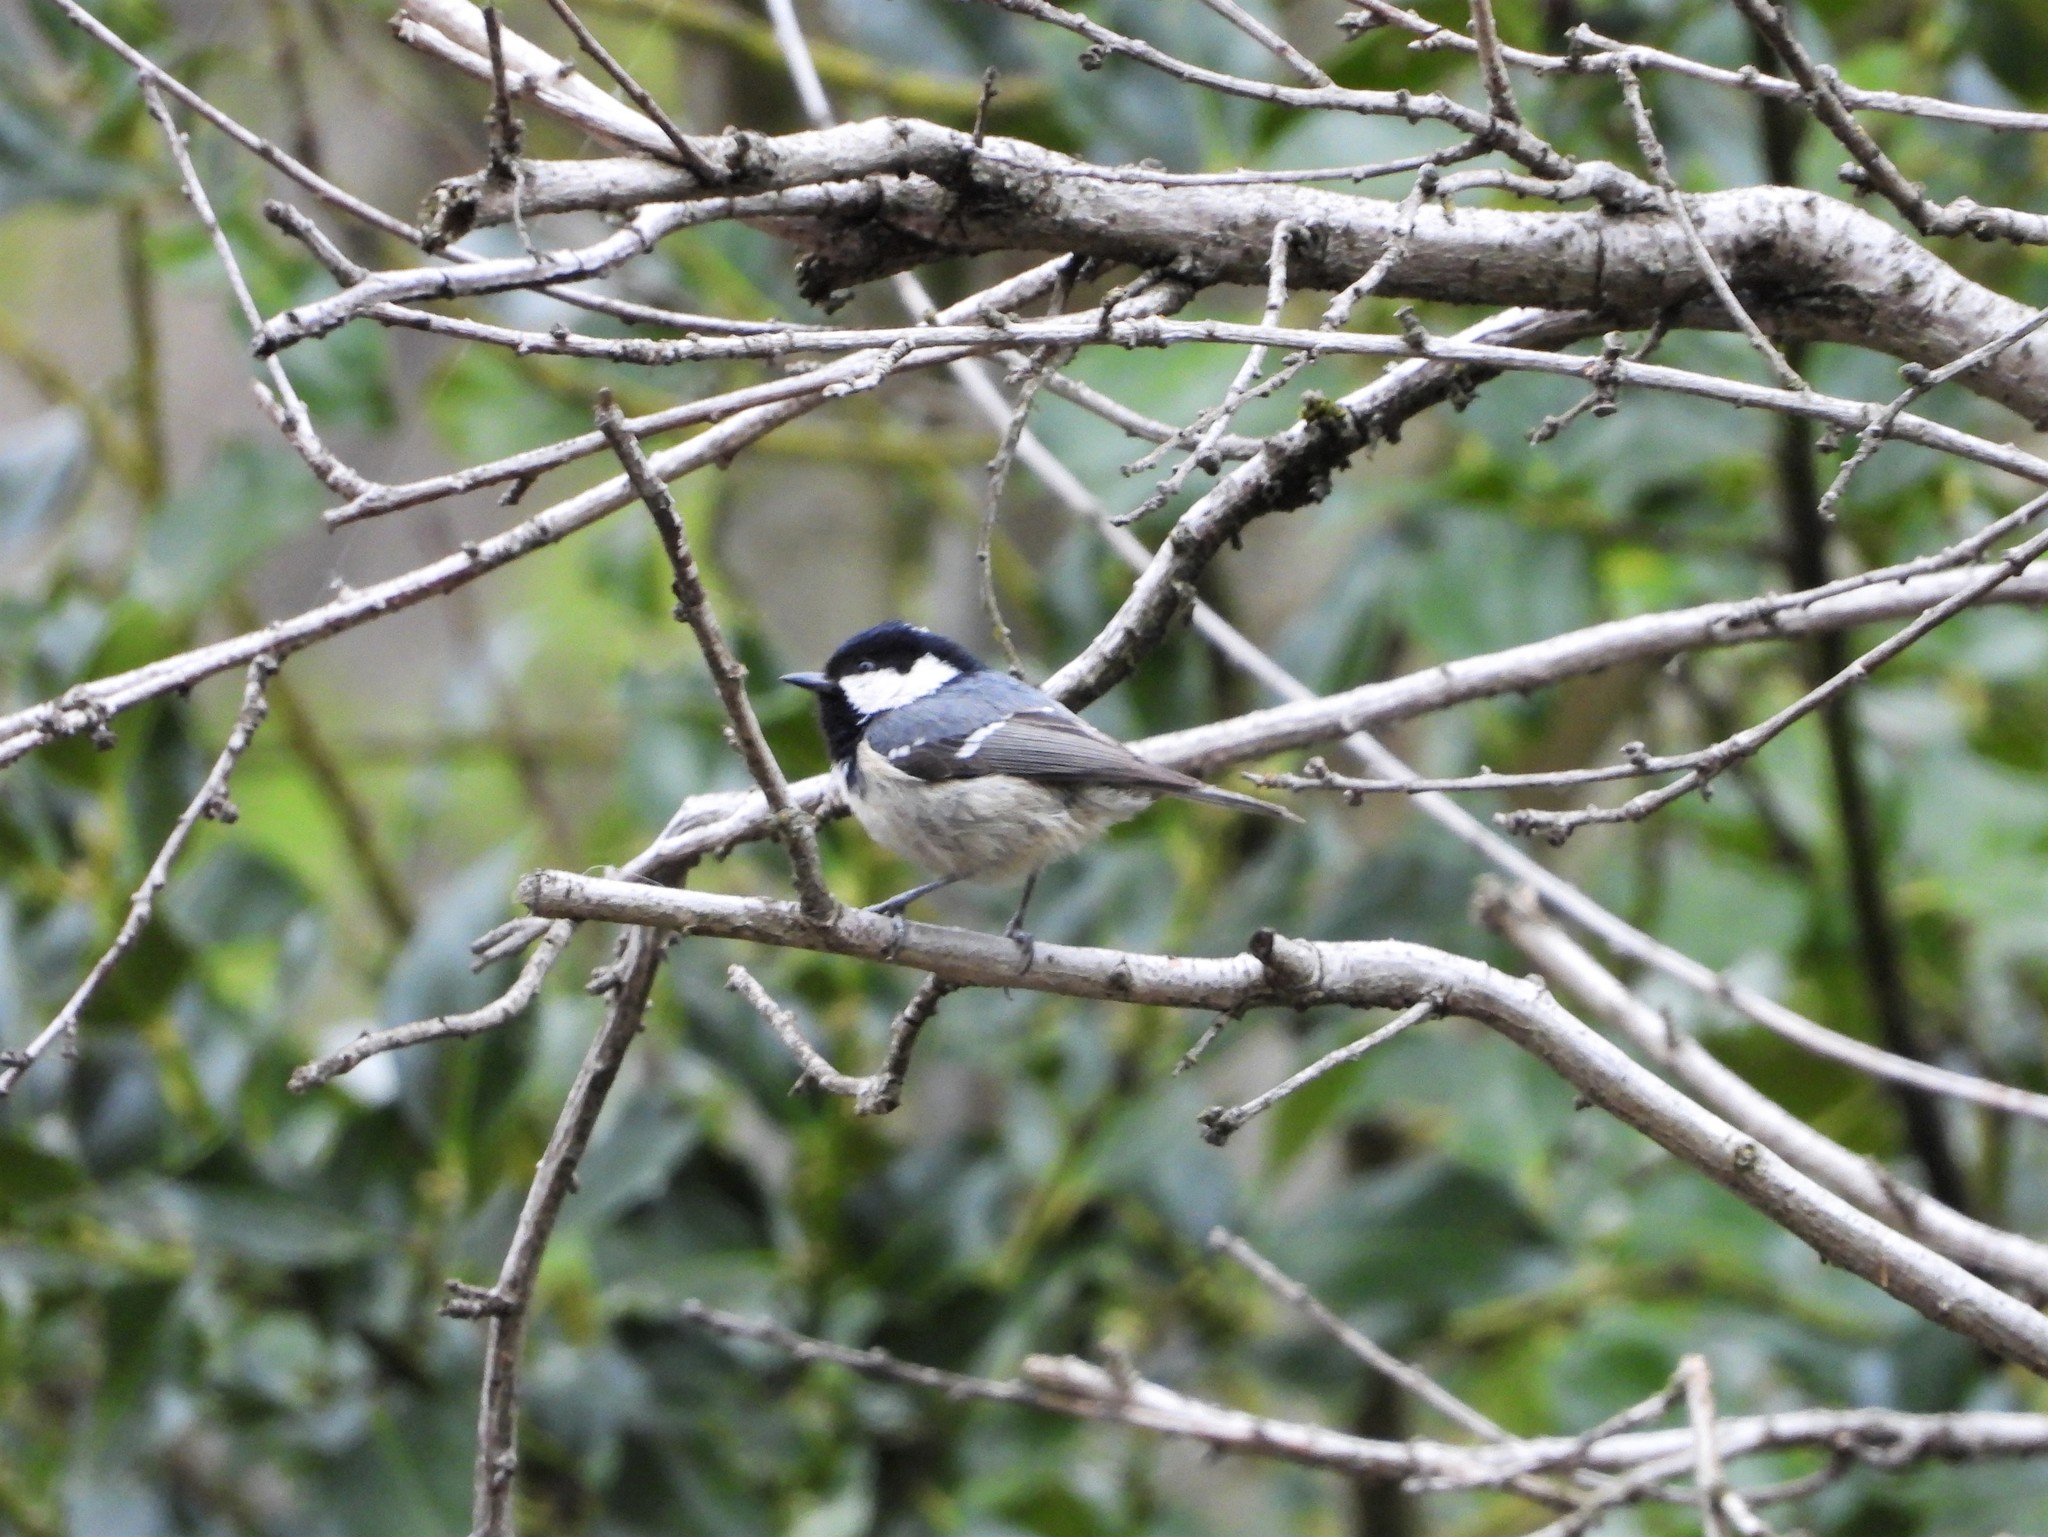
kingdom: Animalia
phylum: Chordata
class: Aves
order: Passeriformes
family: Paridae
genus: Periparus
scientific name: Periparus ater
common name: Coal tit
